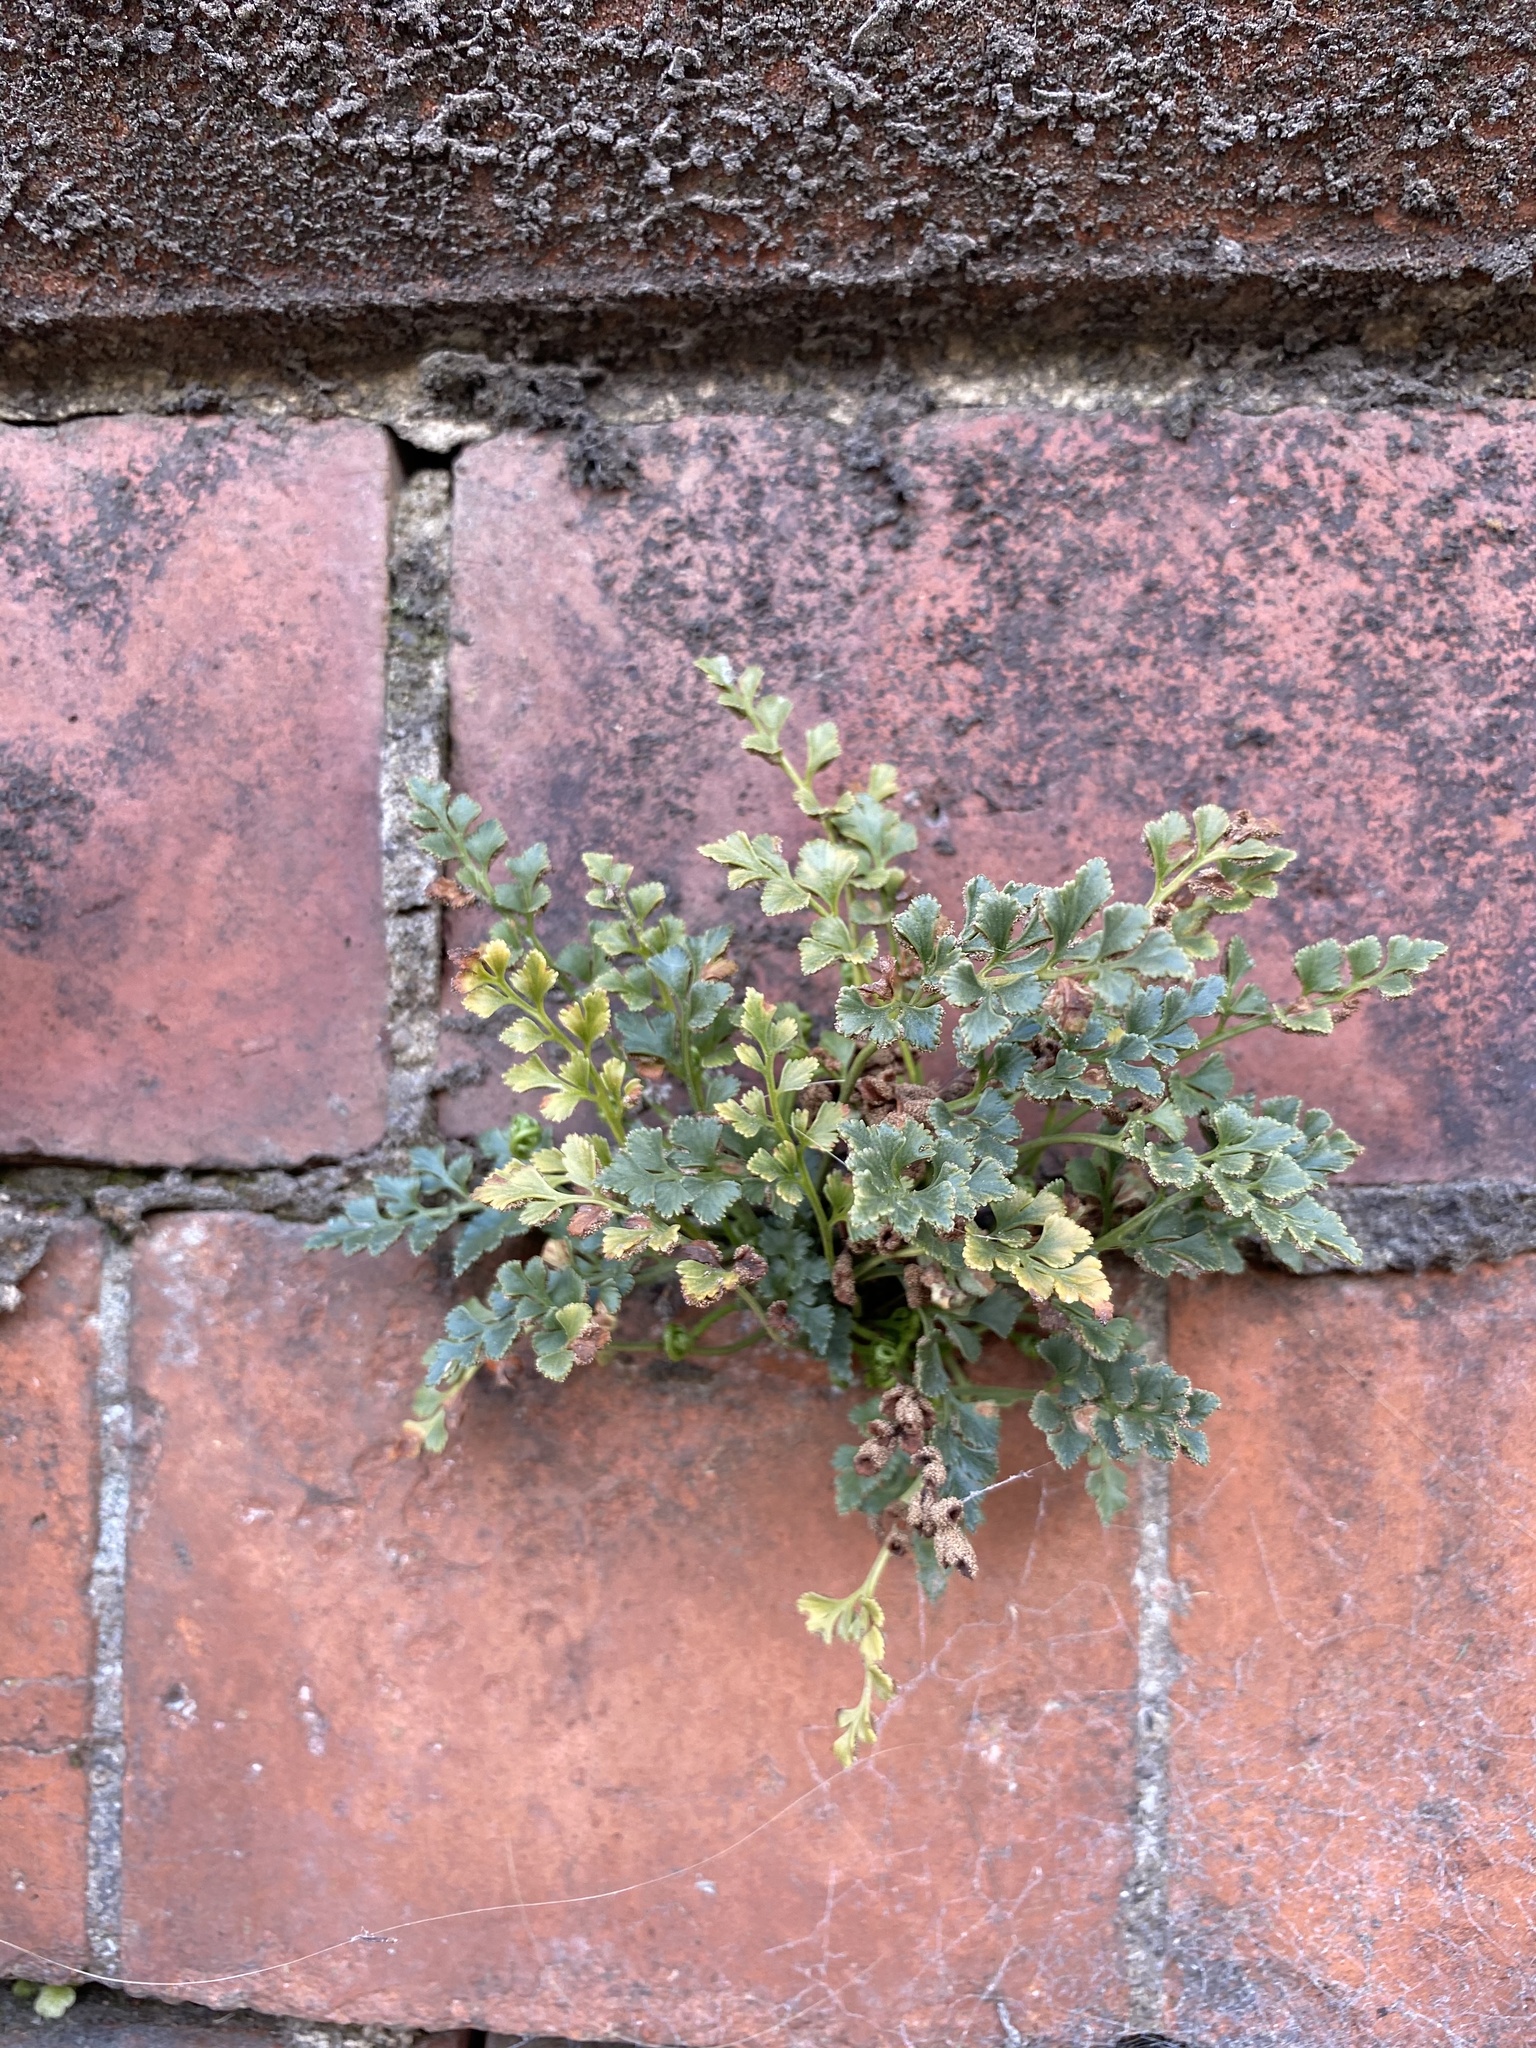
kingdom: Plantae
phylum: Tracheophyta
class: Polypodiopsida
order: Polypodiales
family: Aspleniaceae
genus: Asplenium
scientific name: Asplenium ruta-muraria
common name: Wall-rue
